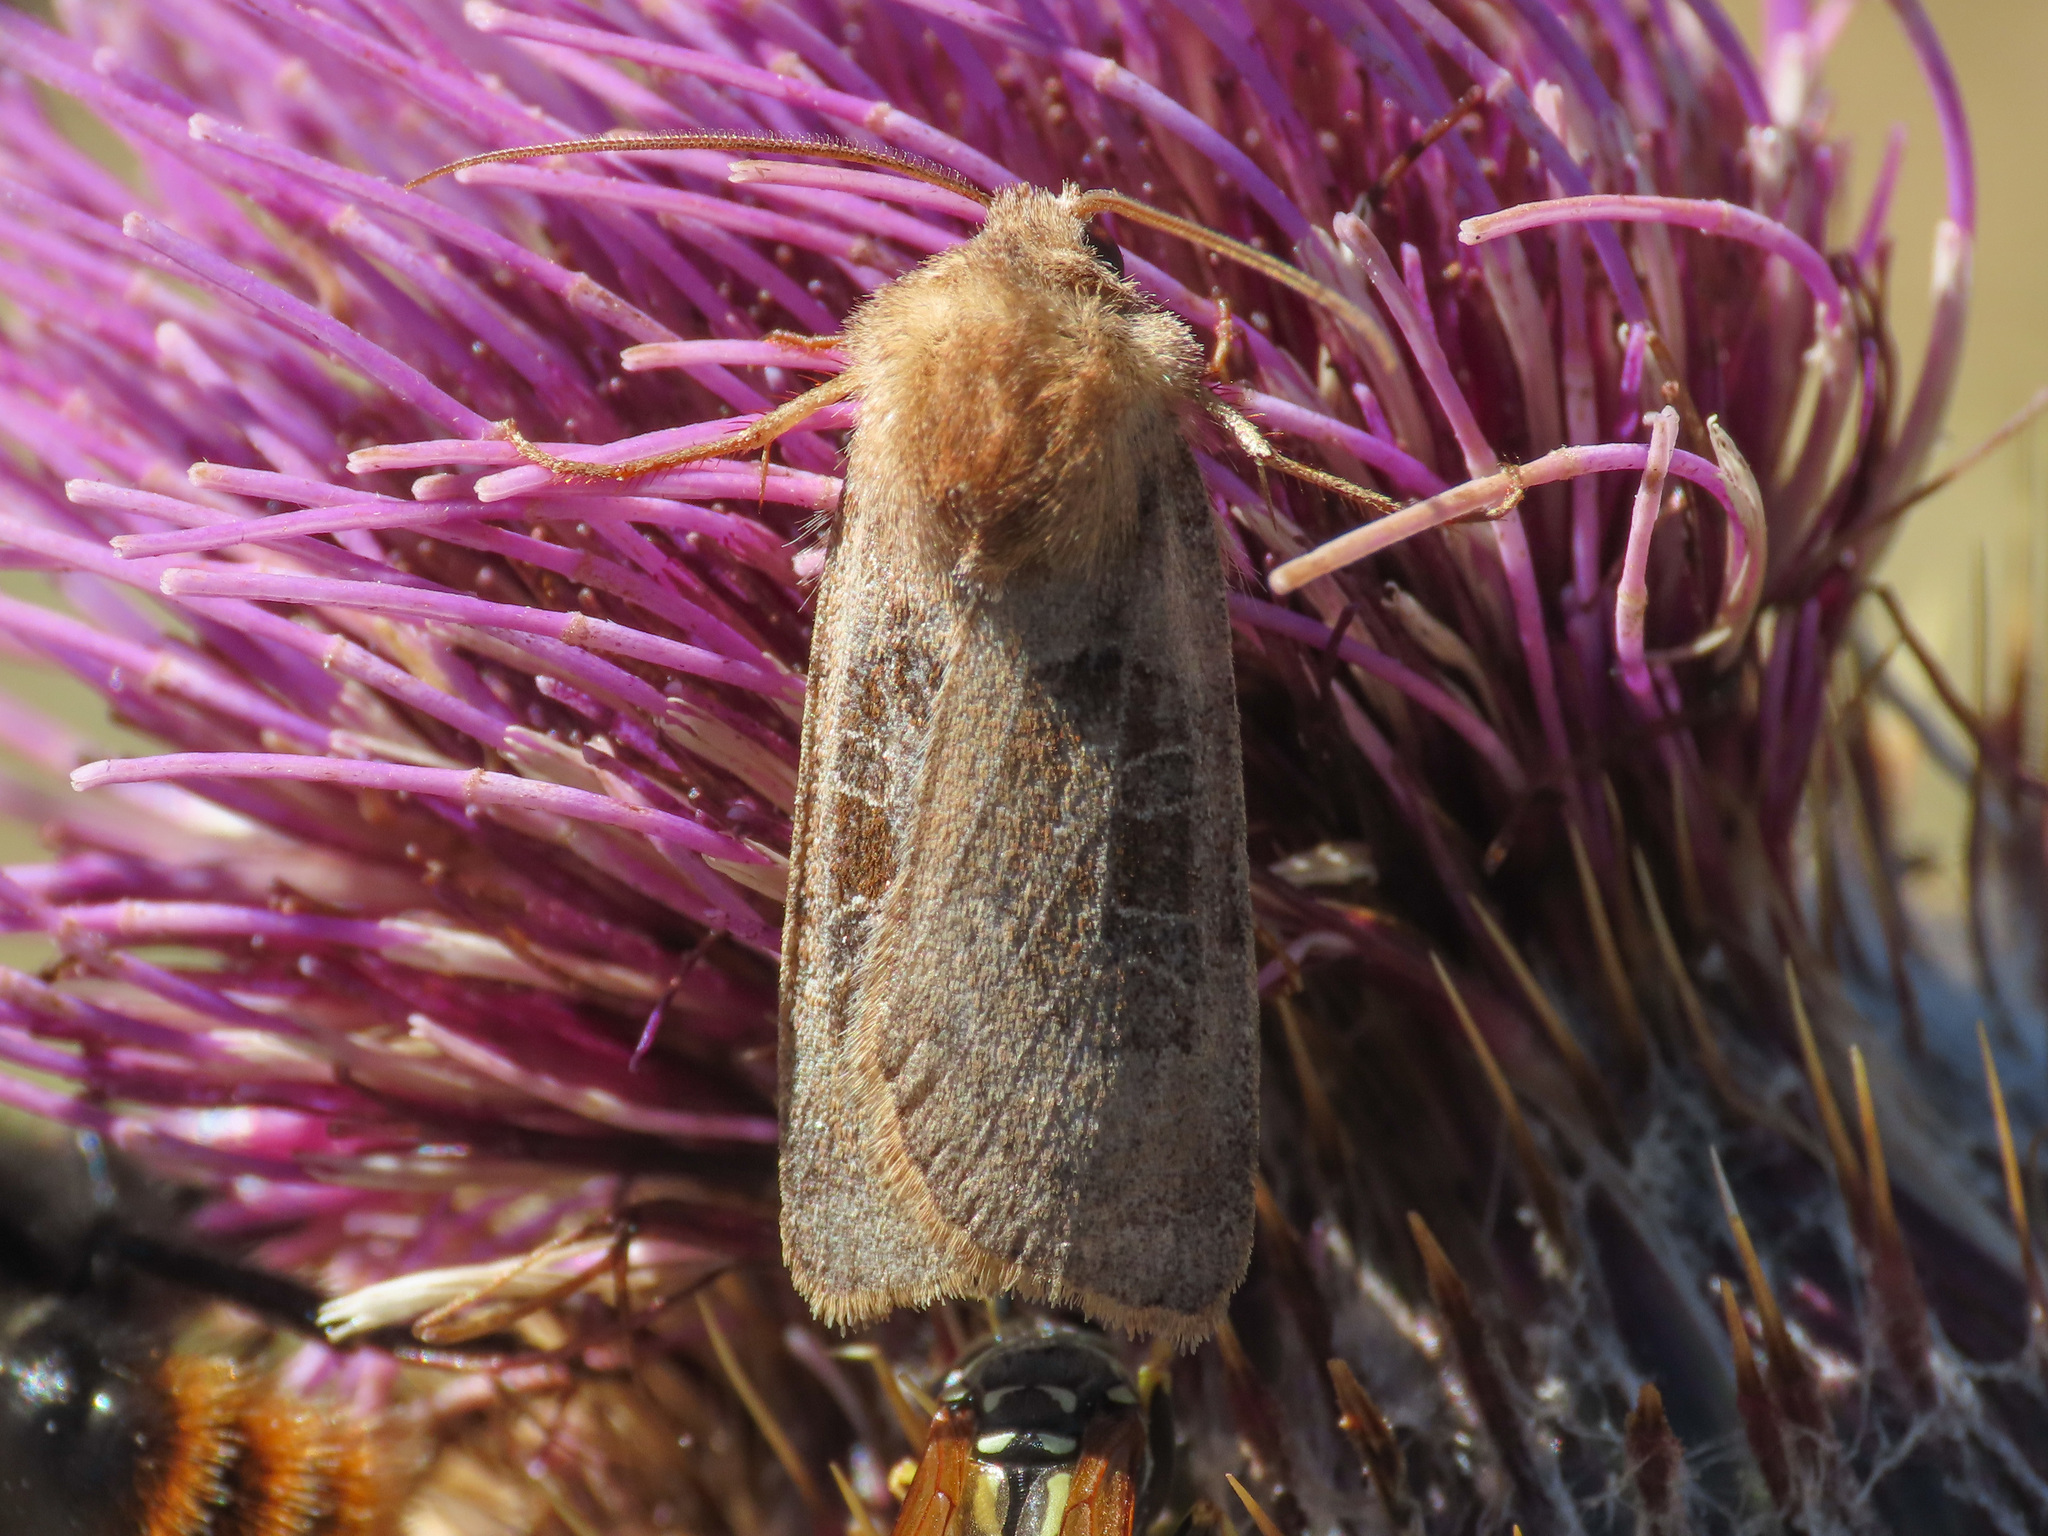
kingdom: Animalia
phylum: Arthropoda
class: Insecta
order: Lepidoptera
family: Noctuidae
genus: Chersotis
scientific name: Chersotis cuprea
